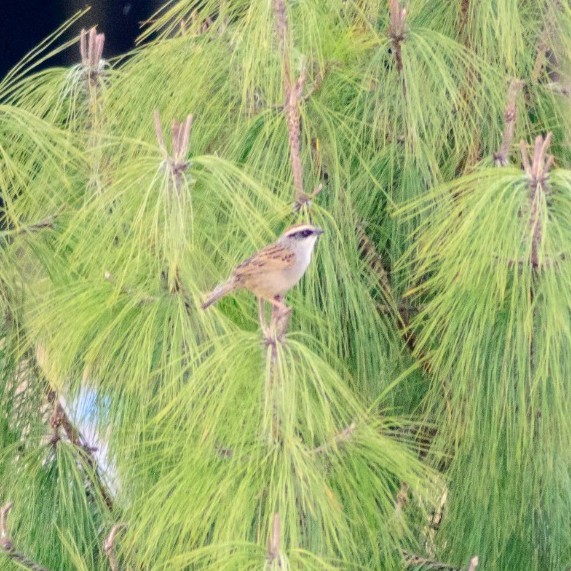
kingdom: Animalia
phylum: Chordata
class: Aves
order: Passeriformes
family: Passerellidae
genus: Oriturus
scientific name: Oriturus superciliosus
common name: Striped sparrow
